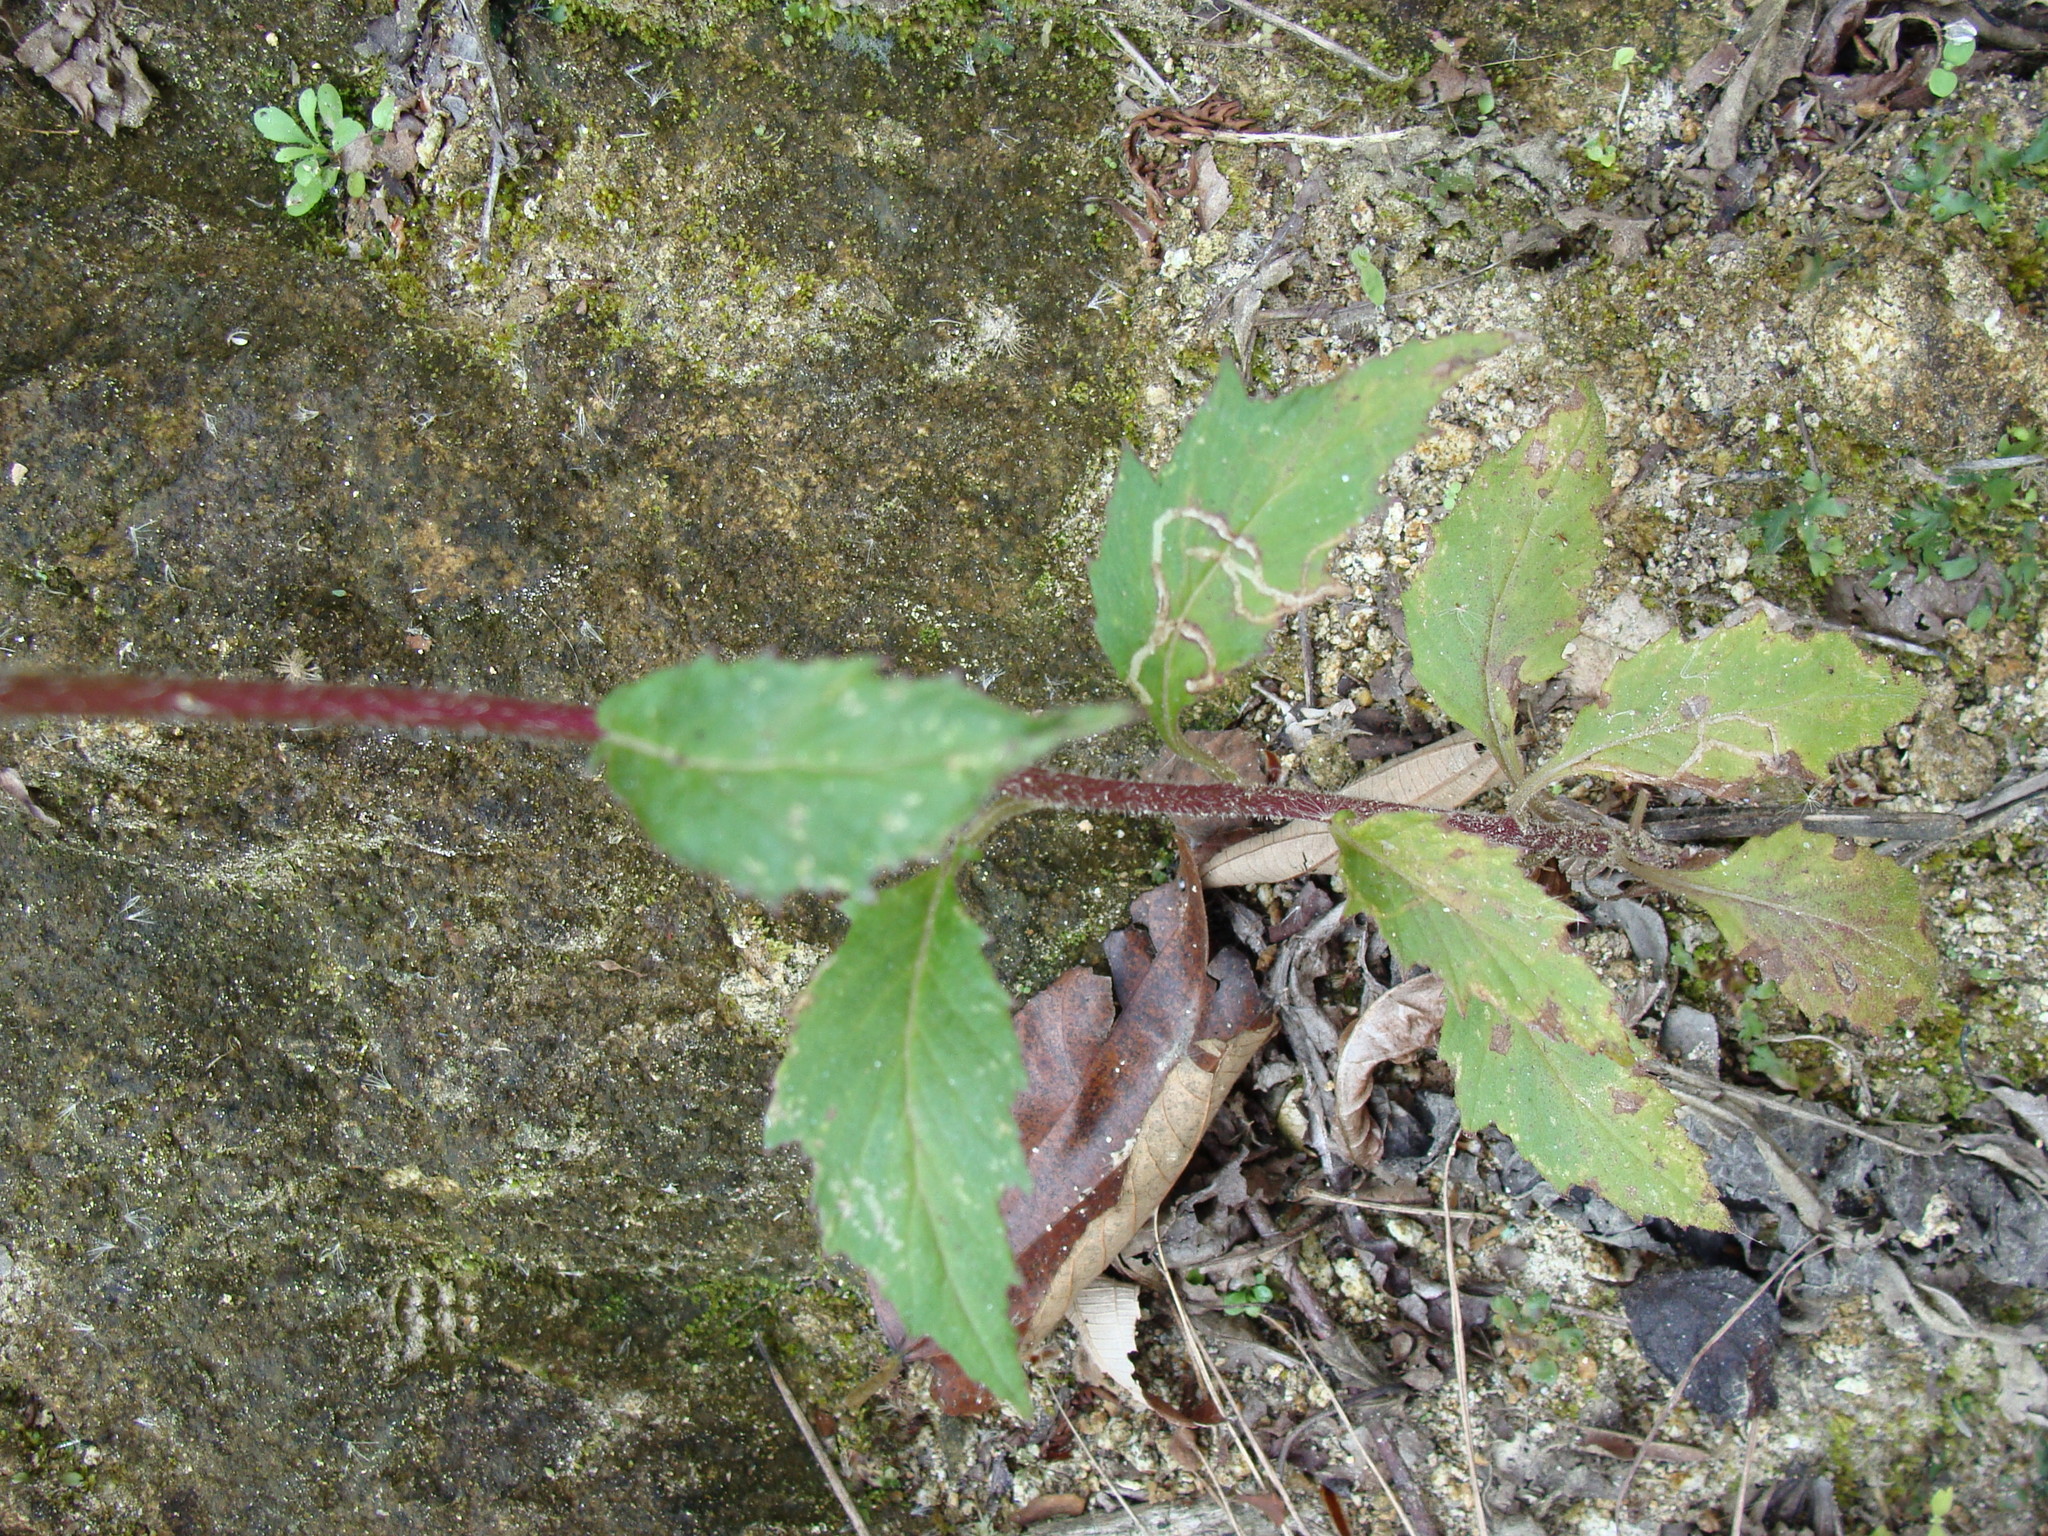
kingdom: Plantae
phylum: Tracheophyta
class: Magnoliopsida
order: Asterales
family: Asteraceae
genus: Erechtites
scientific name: Erechtites valerianifolius
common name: Tropical burnweed
